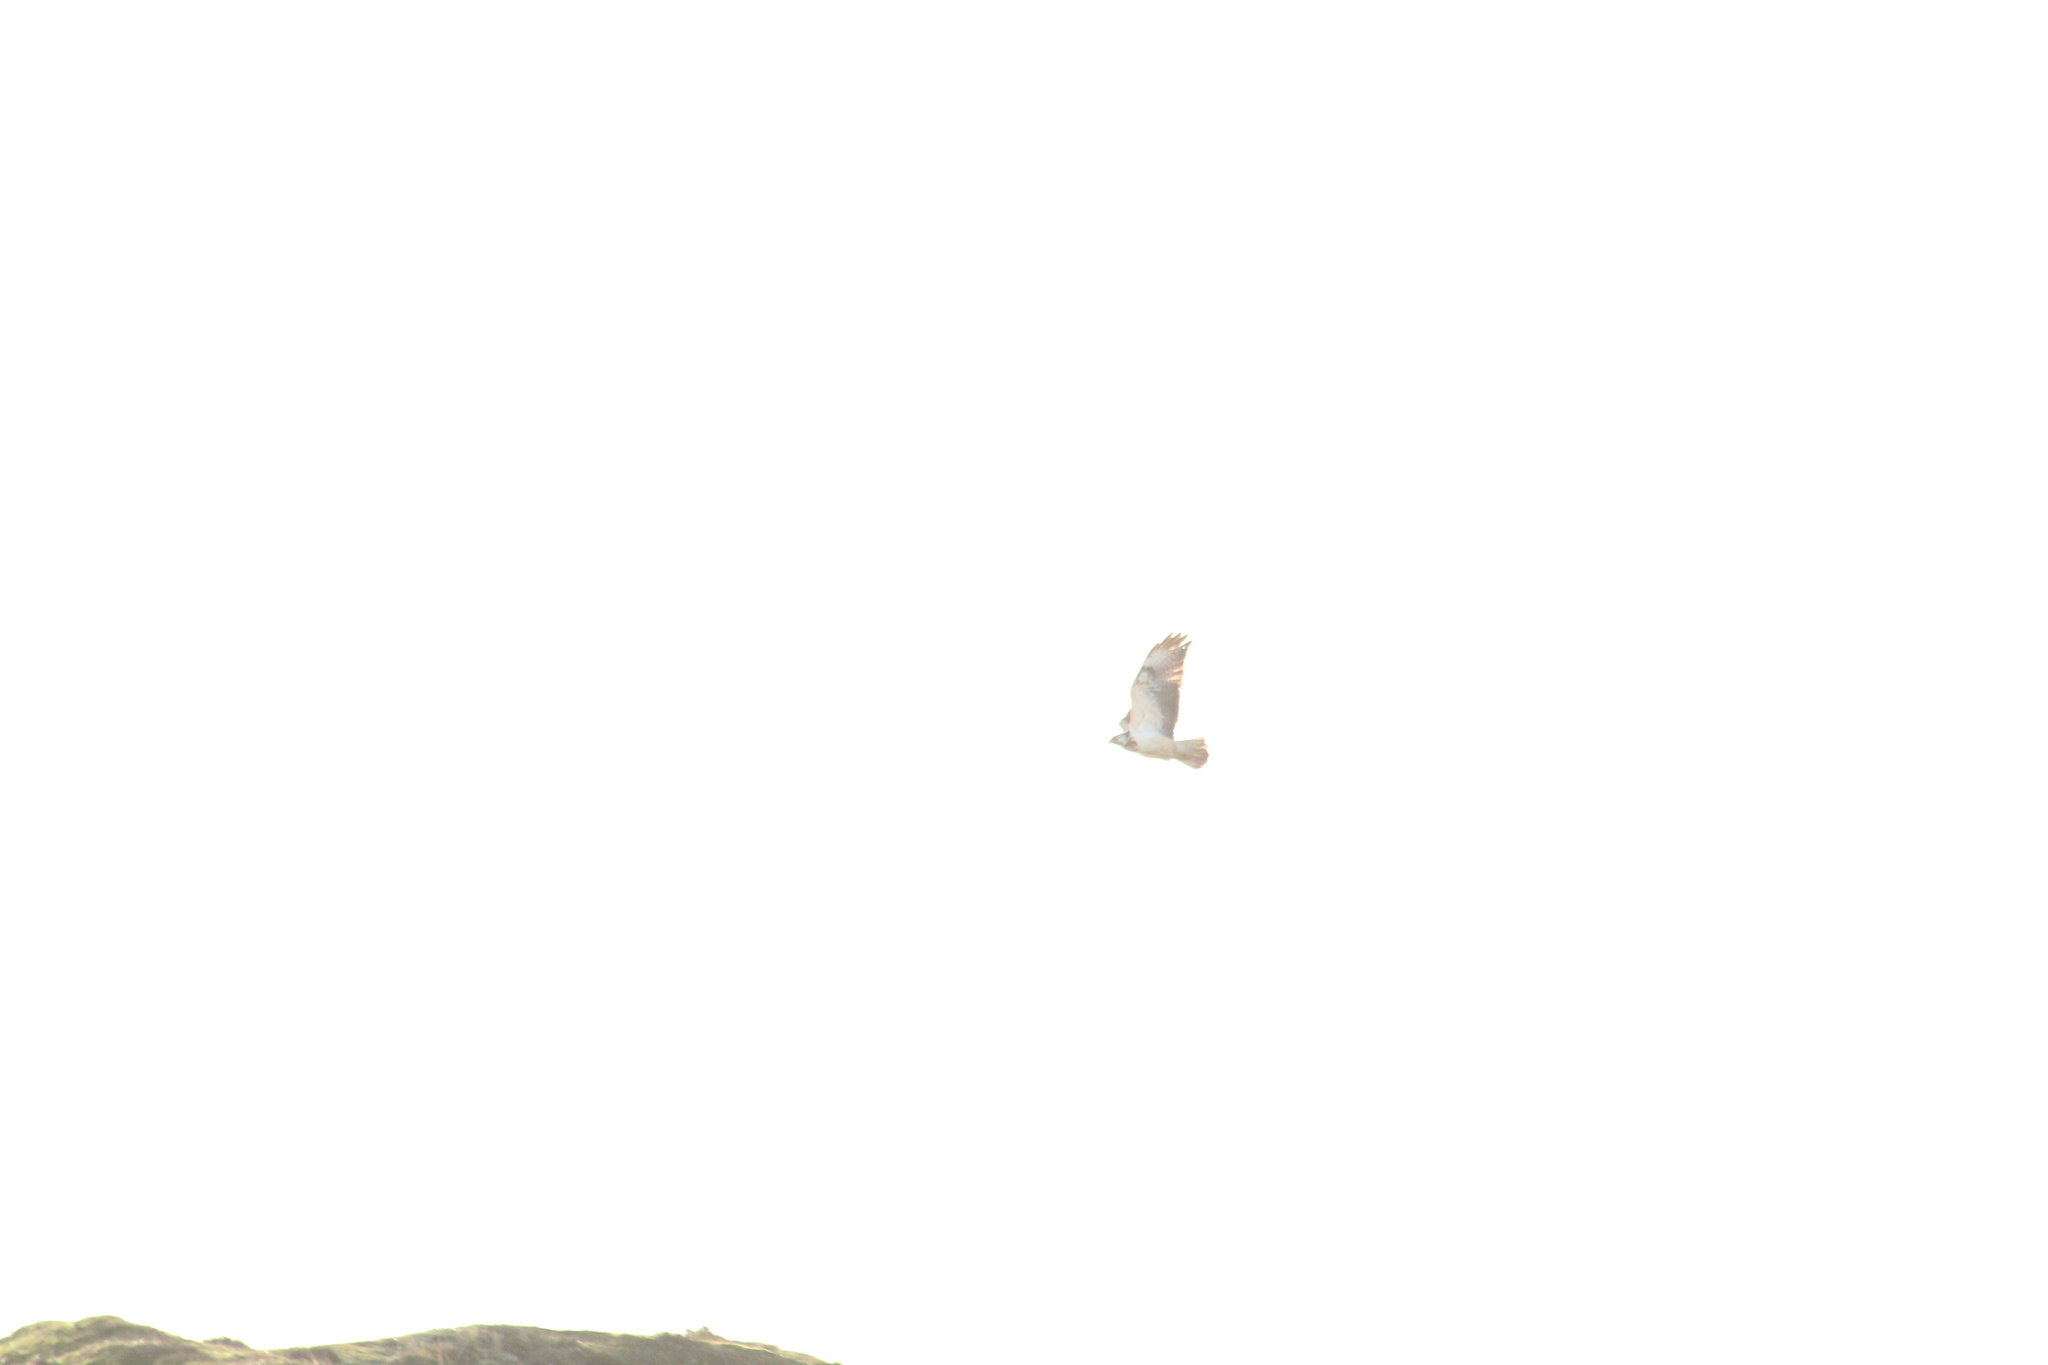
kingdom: Animalia
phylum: Chordata
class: Aves
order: Accipitriformes
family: Accipitridae
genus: Buteo
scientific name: Buteo buteo
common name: Common buzzard
